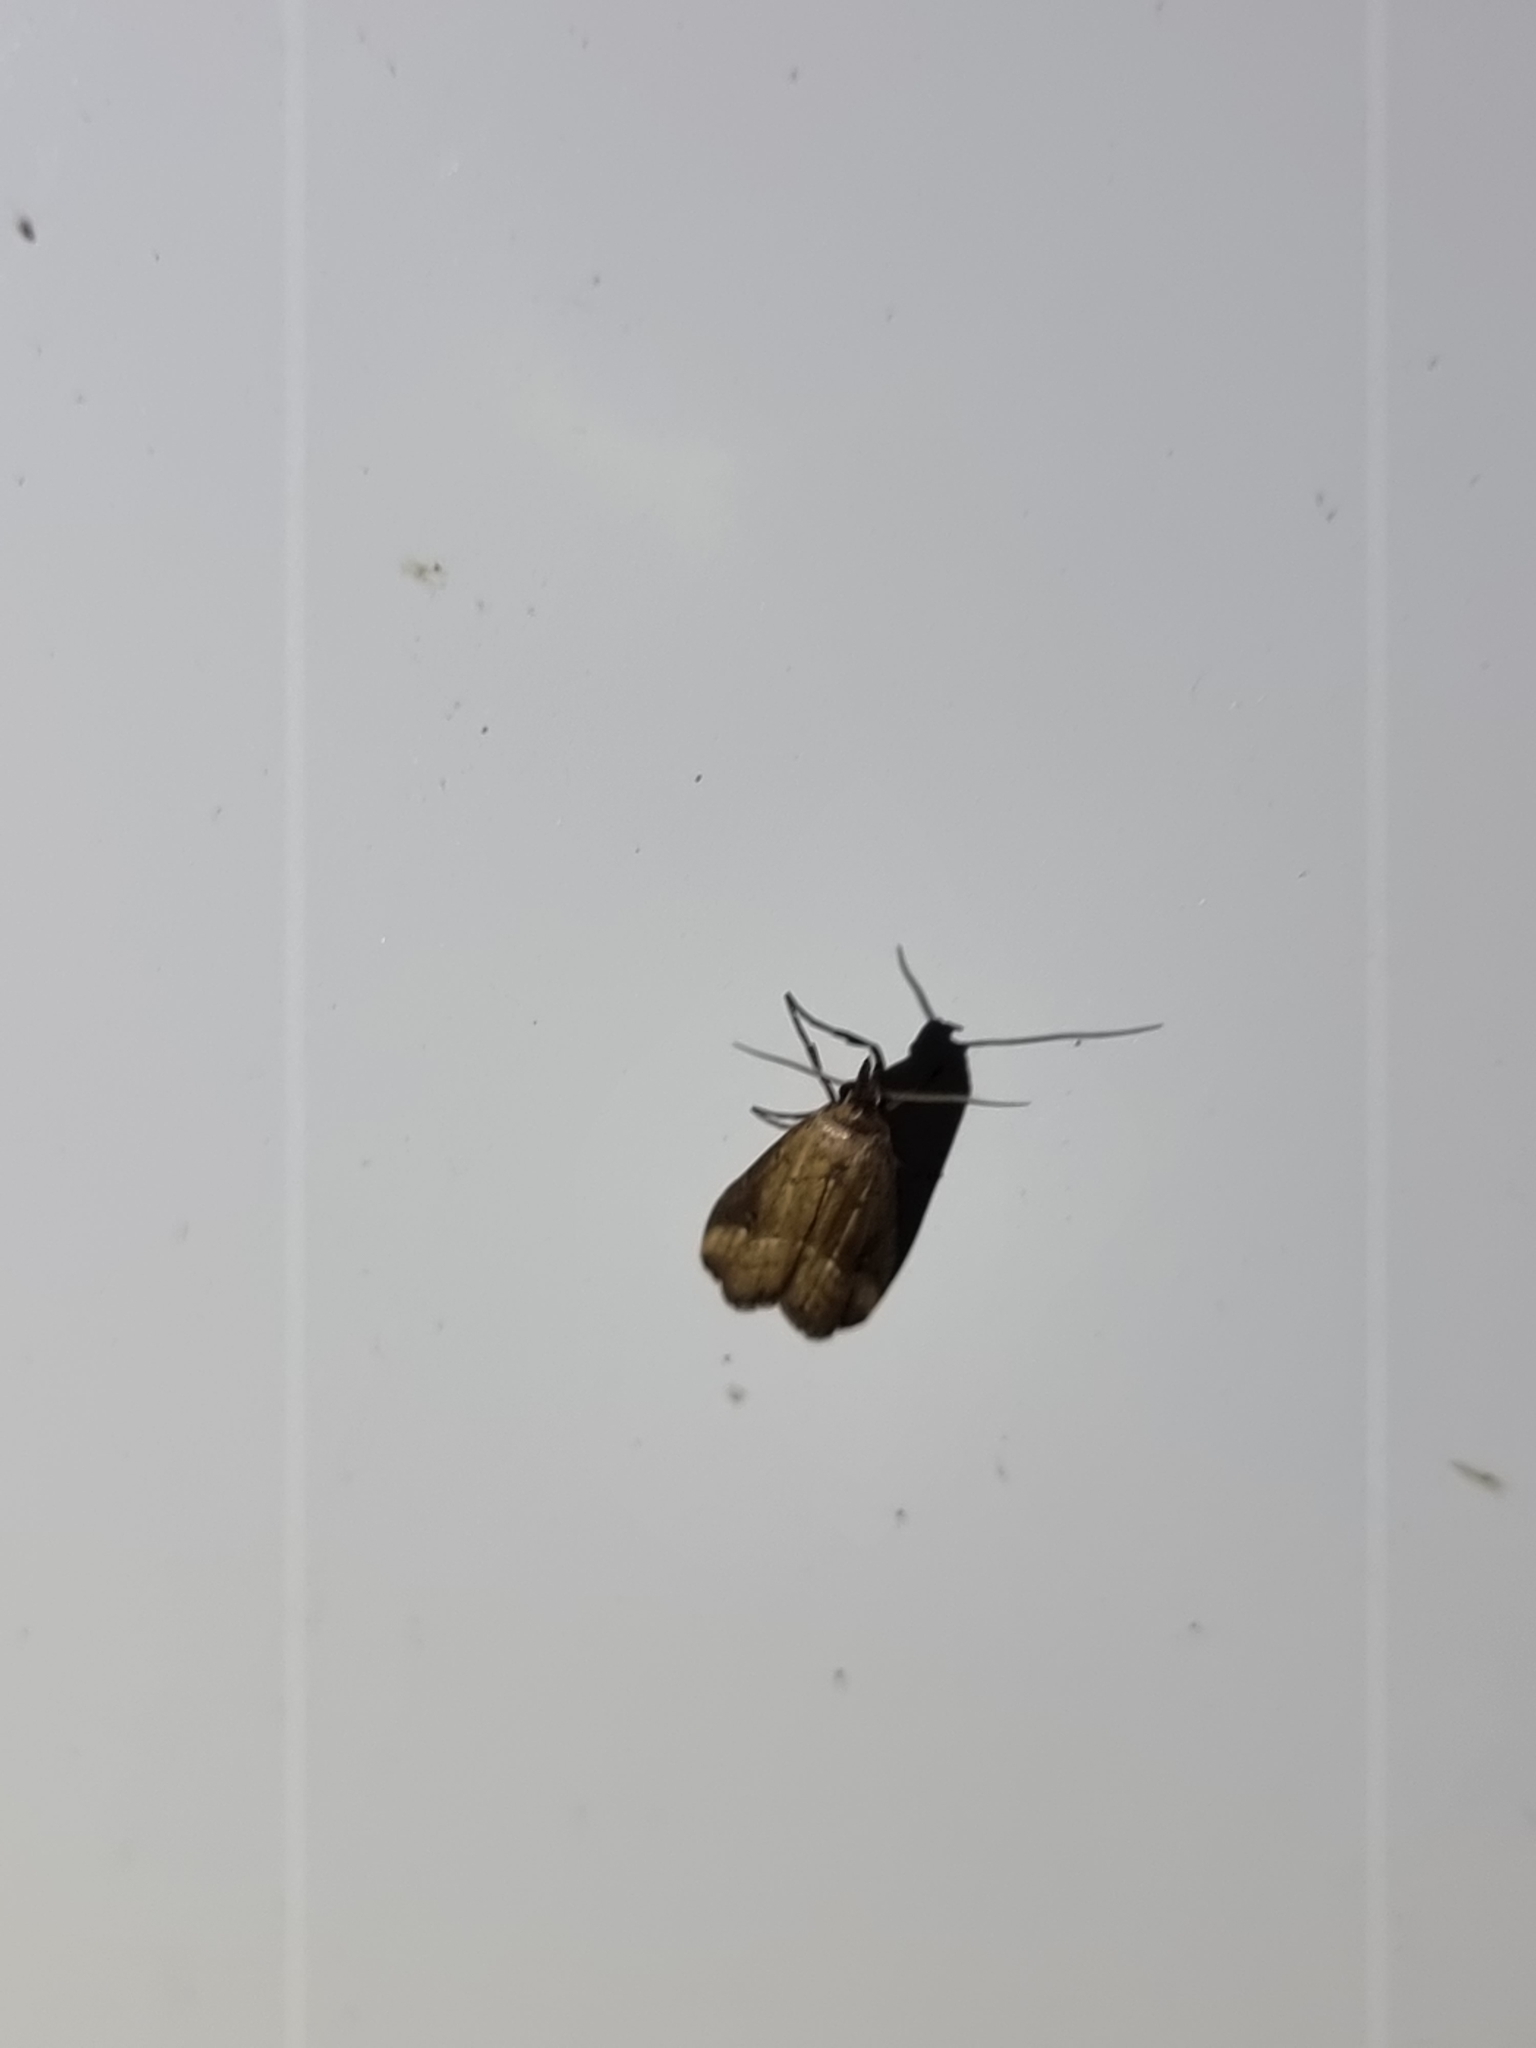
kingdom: Animalia
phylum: Arthropoda
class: Insecta
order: Lepidoptera
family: Erebidae
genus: Luceria
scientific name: Luceria oculalis
